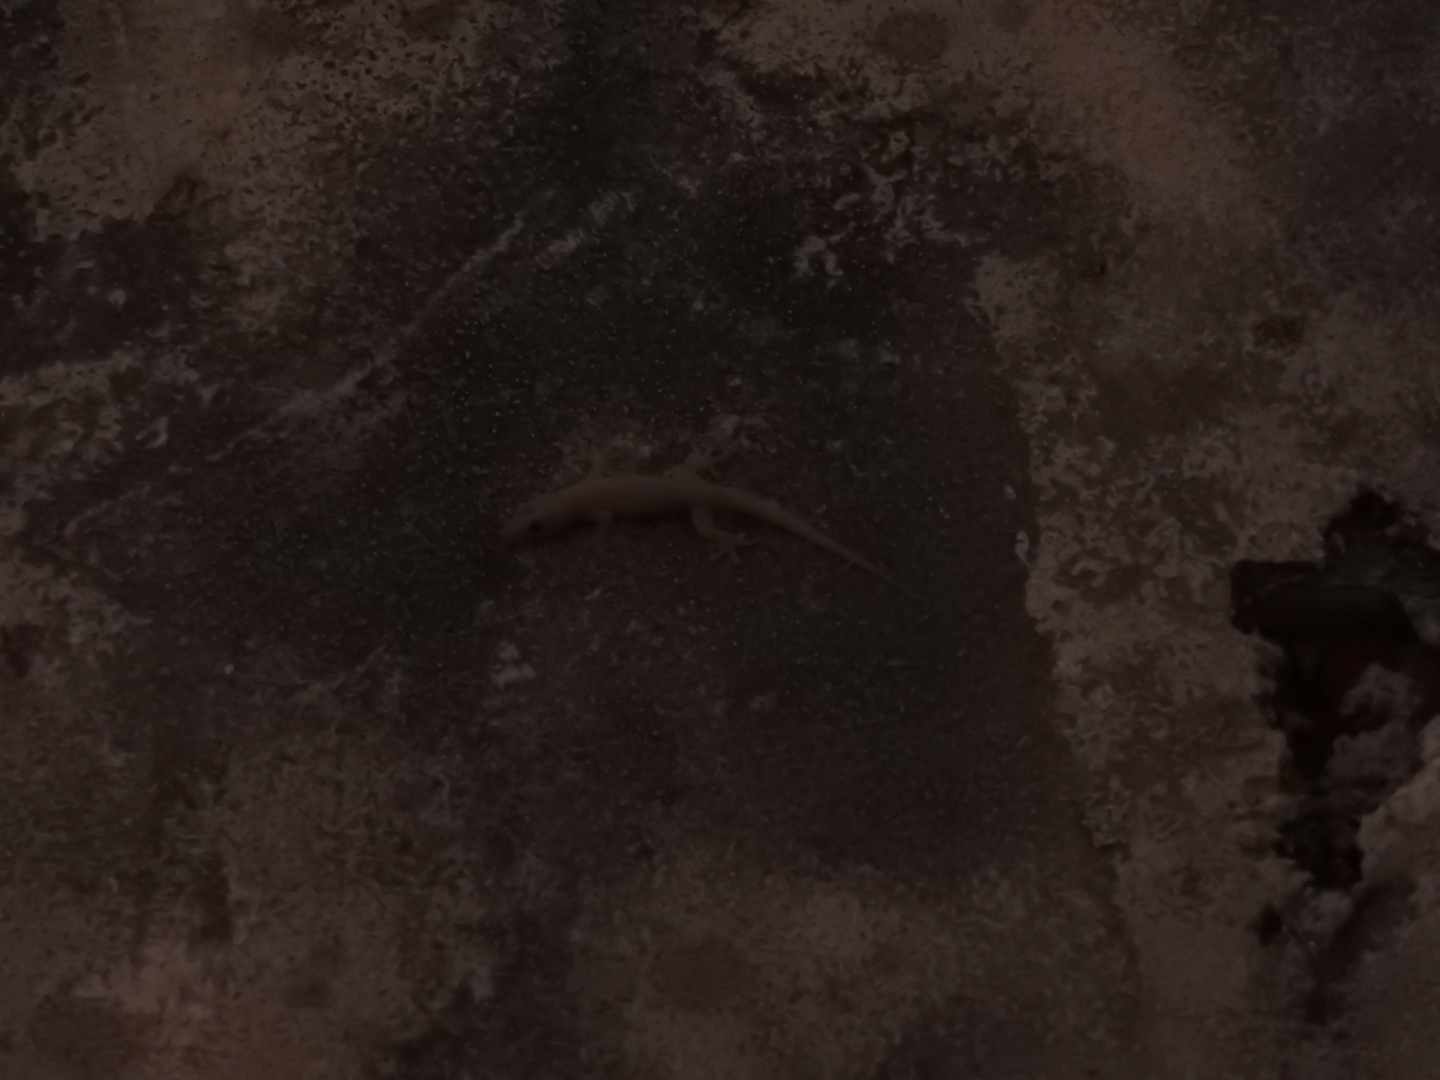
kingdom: Animalia
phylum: Chordata
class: Squamata
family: Gekkonidae
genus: Hemidactylus
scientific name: Hemidactylus frenatus
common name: Common house gecko
